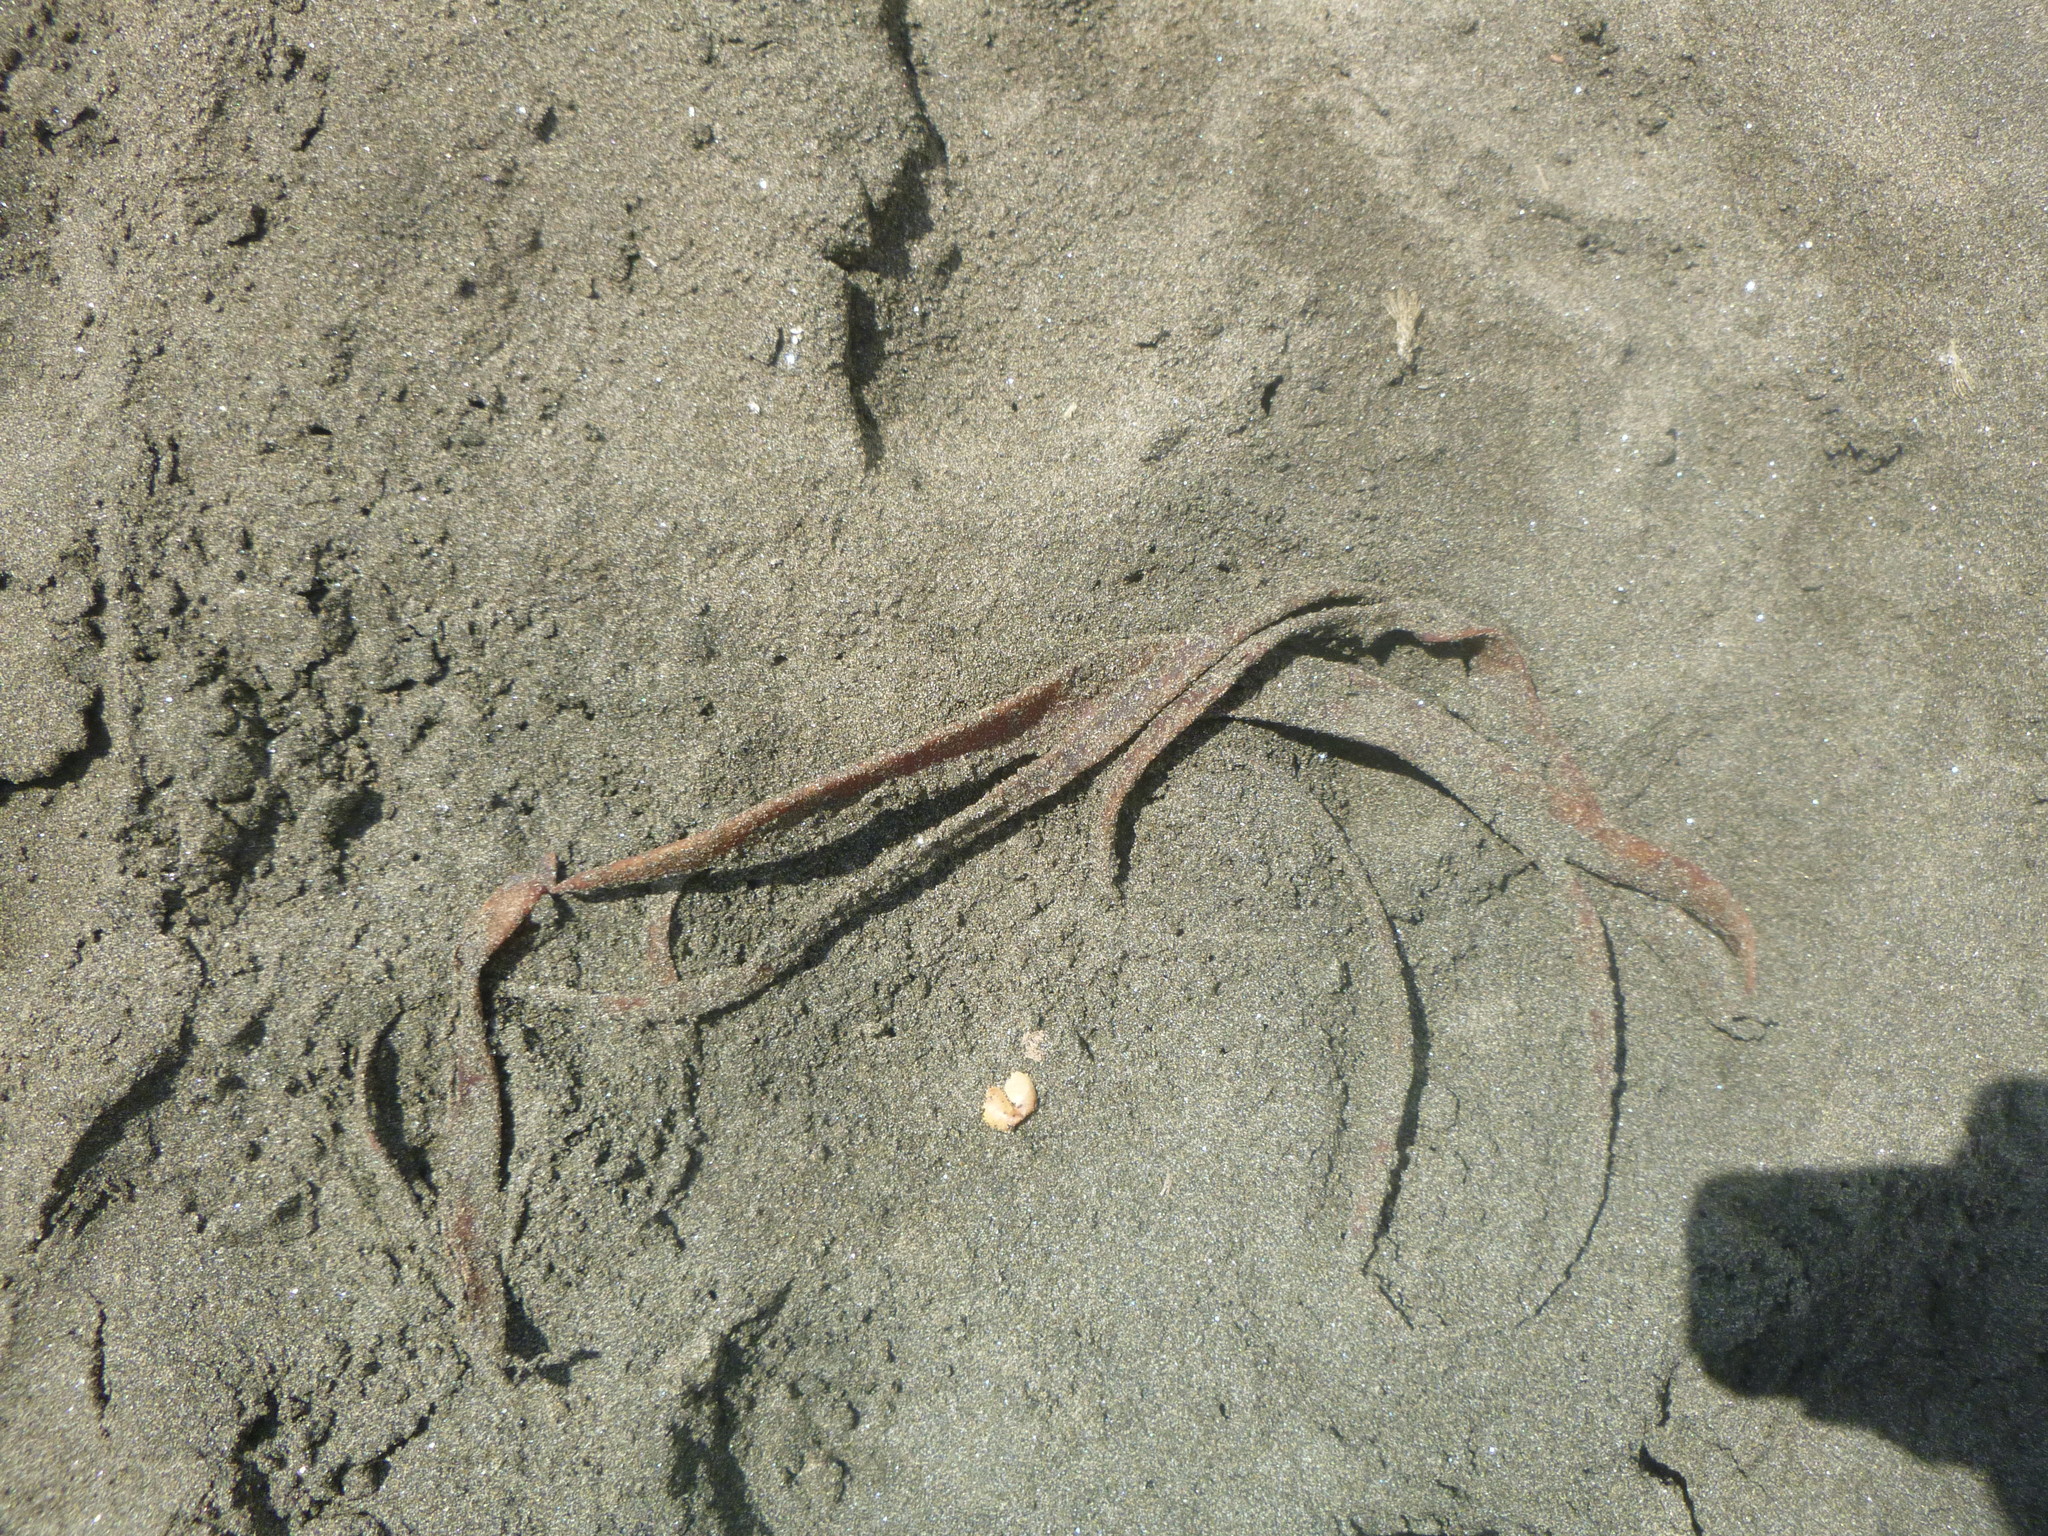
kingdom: Chromista
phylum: Ochrophyta
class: Phaeophyceae
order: Fucales
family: Durvillaeaceae
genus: Durvillaea
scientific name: Durvillaea antarctica
